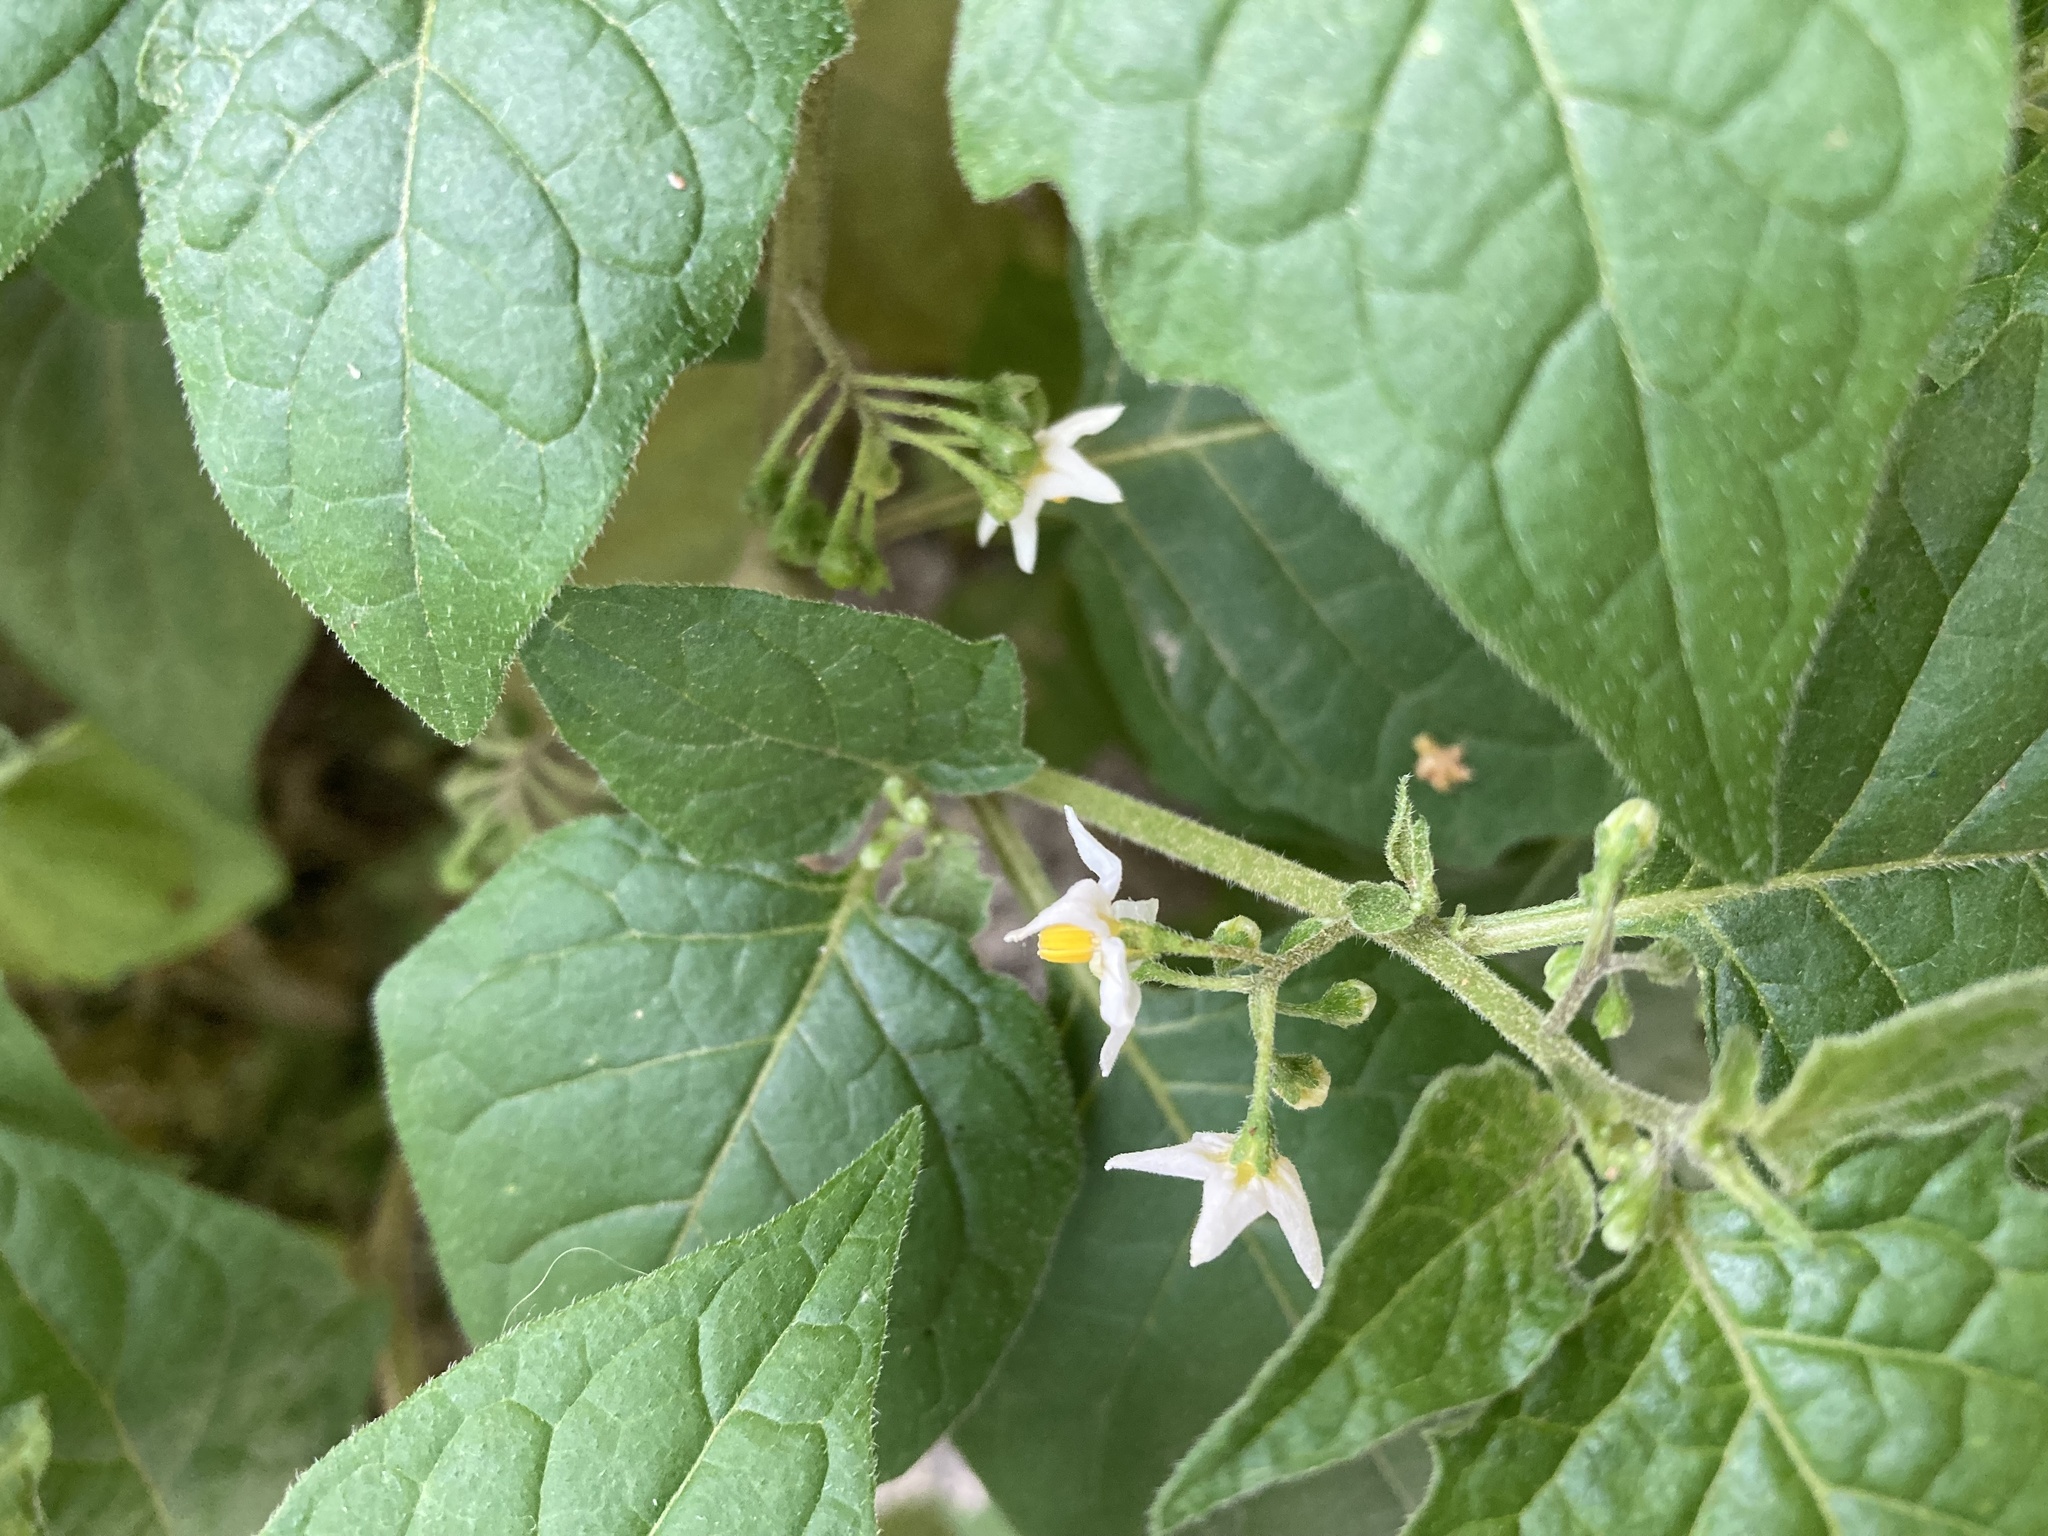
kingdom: Plantae
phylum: Tracheophyta
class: Magnoliopsida
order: Solanales
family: Solanaceae
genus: Solanum
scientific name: Solanum nigrum
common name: Black nightshade
